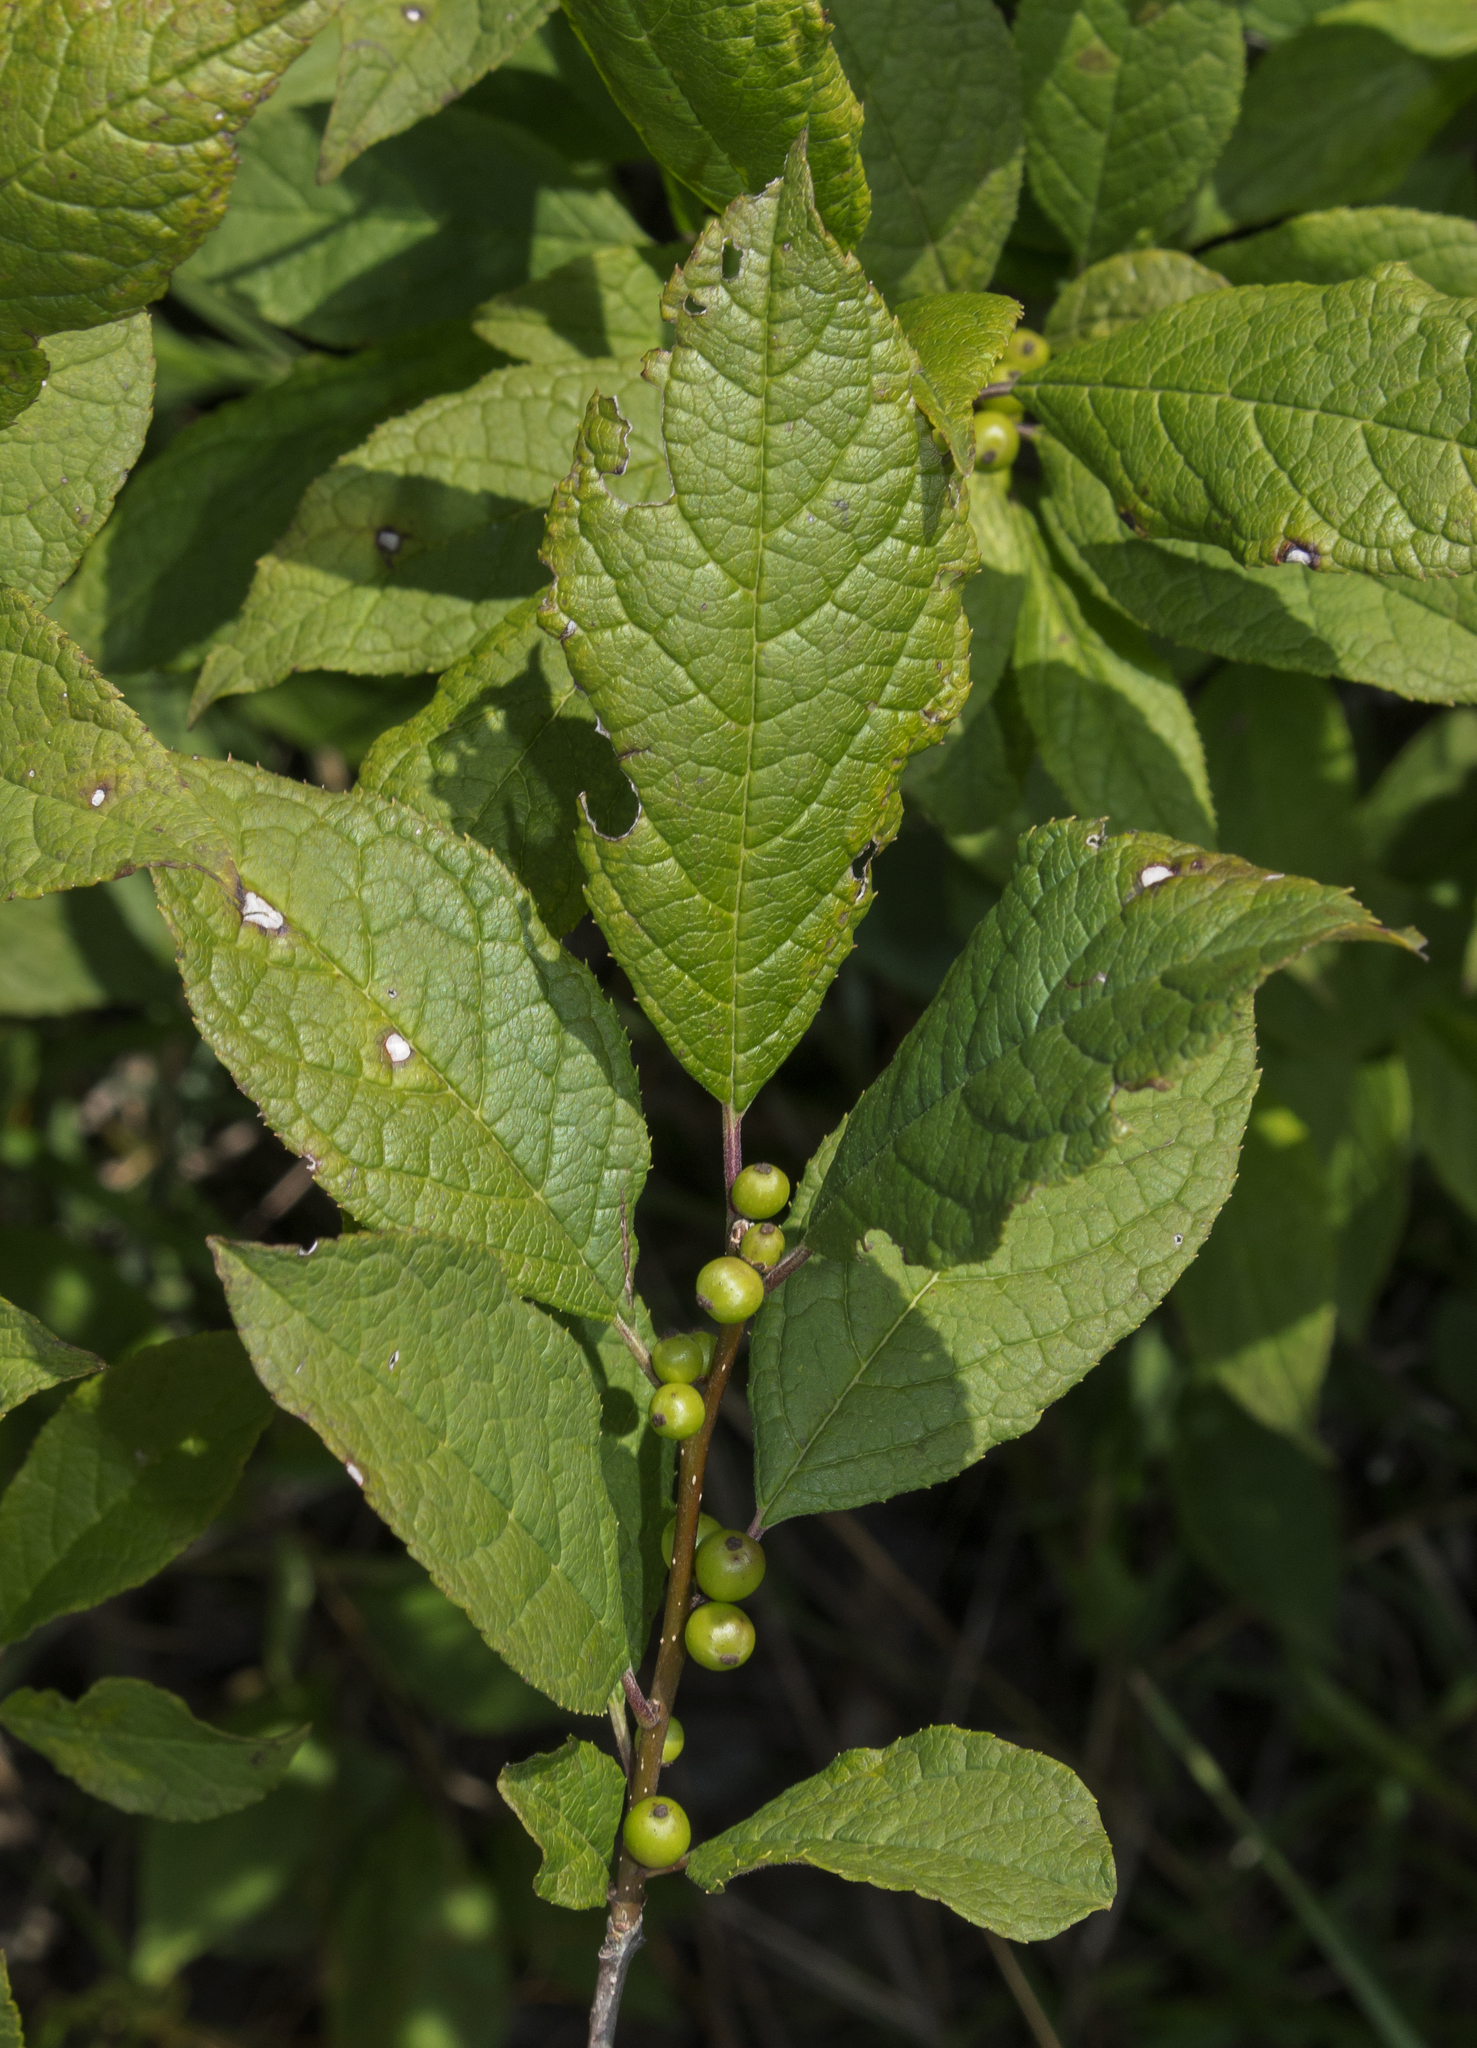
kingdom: Plantae
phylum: Tracheophyta
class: Magnoliopsida
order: Aquifoliales
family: Aquifoliaceae
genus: Ilex
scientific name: Ilex verticillata
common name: Virginia winterberry
